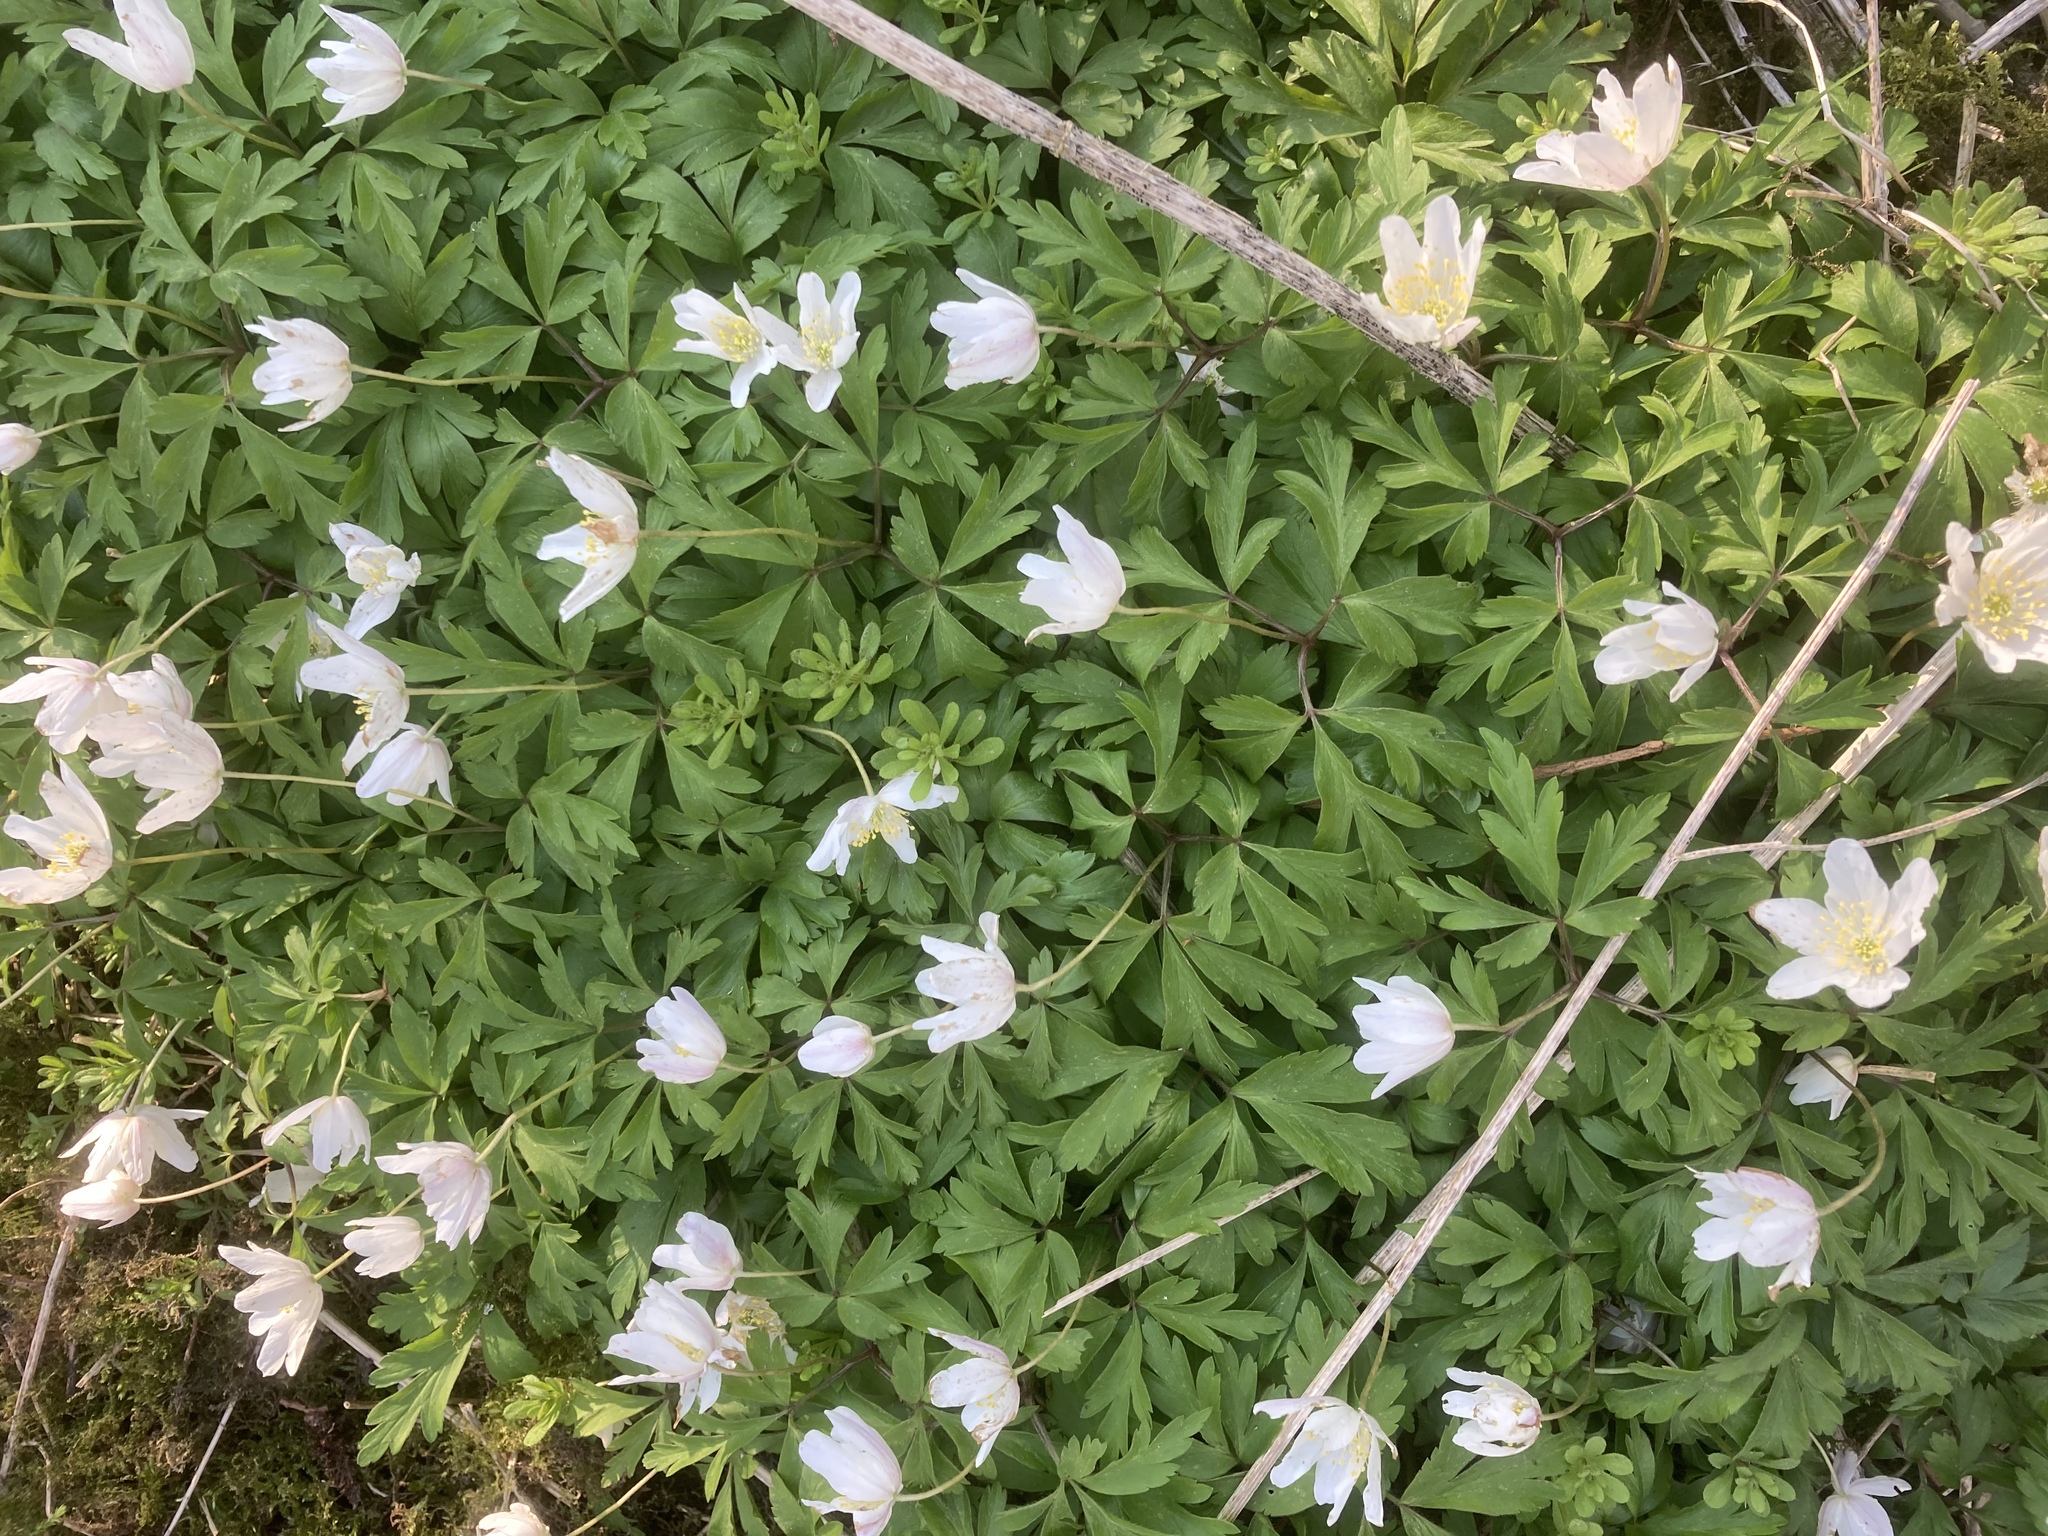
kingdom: Plantae
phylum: Tracheophyta
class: Magnoliopsida
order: Ranunculales
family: Ranunculaceae
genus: Anemone
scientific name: Anemone nemorosa
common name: Wood anemone
